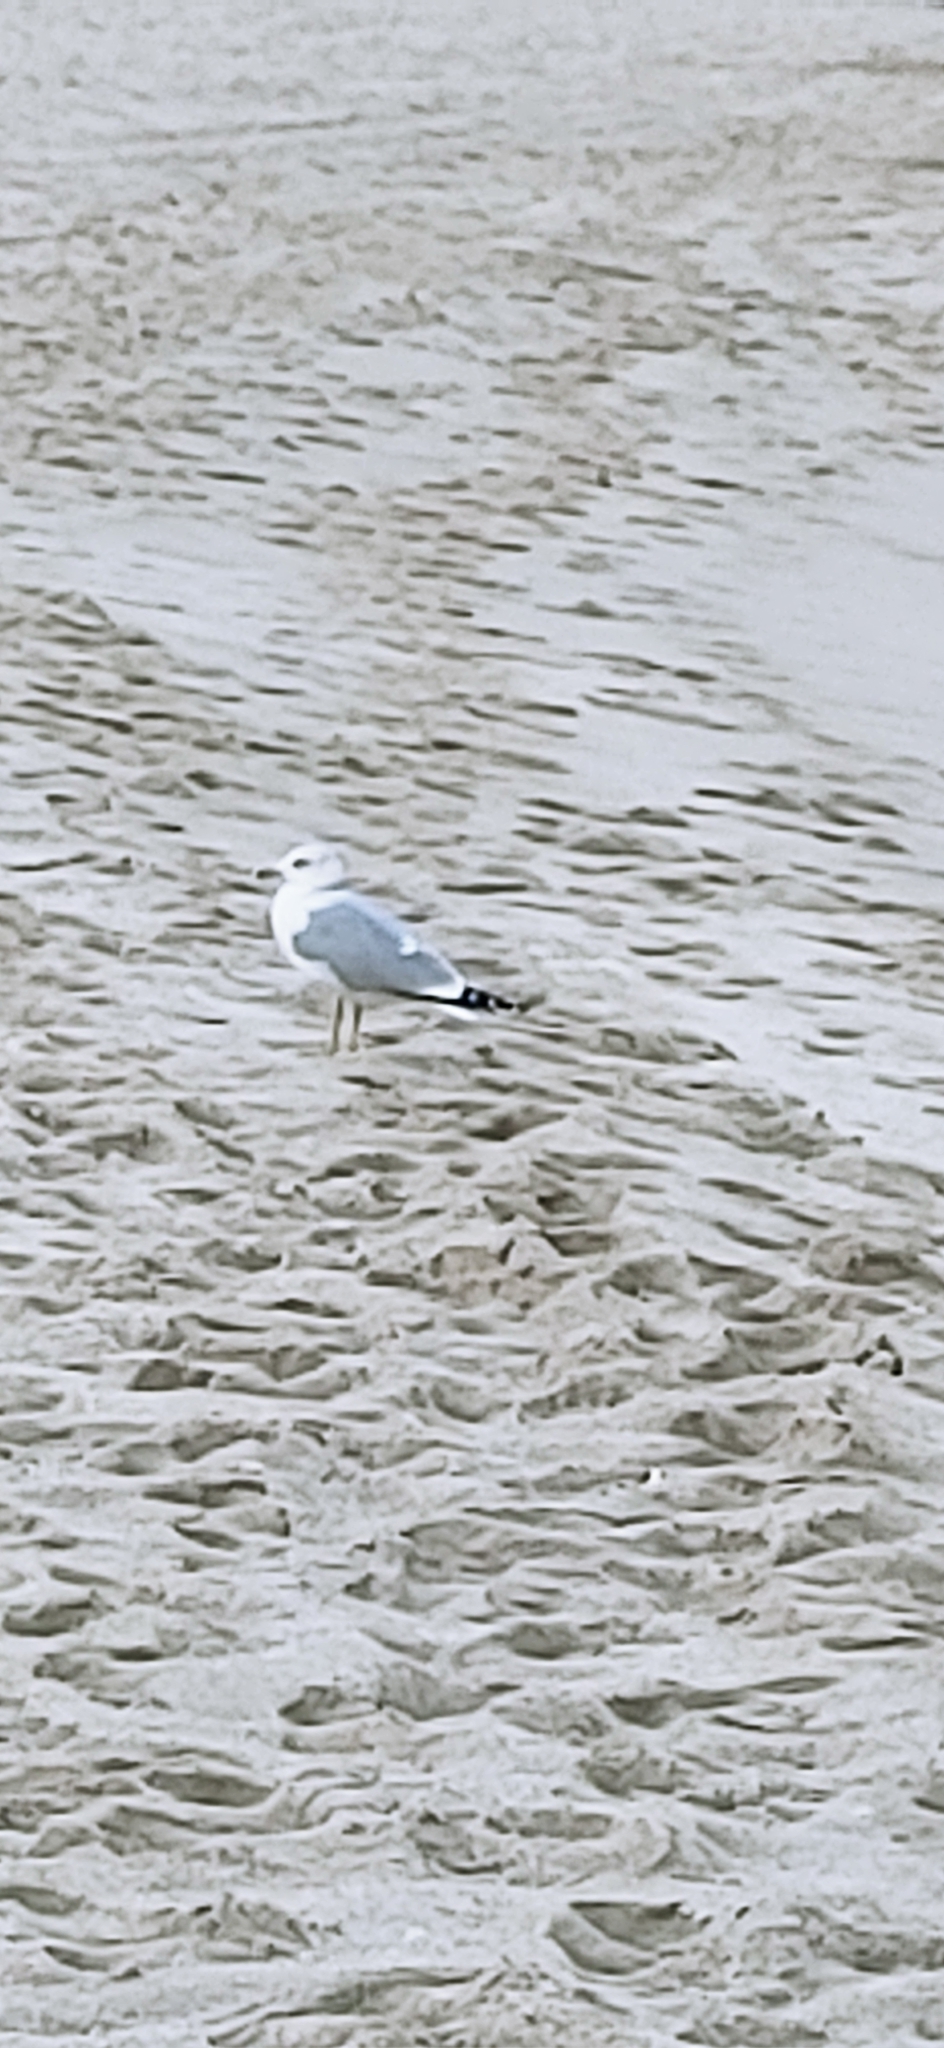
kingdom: Animalia
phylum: Chordata
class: Aves
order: Charadriiformes
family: Laridae
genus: Larus
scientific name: Larus delawarensis
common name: Ring-billed gull
